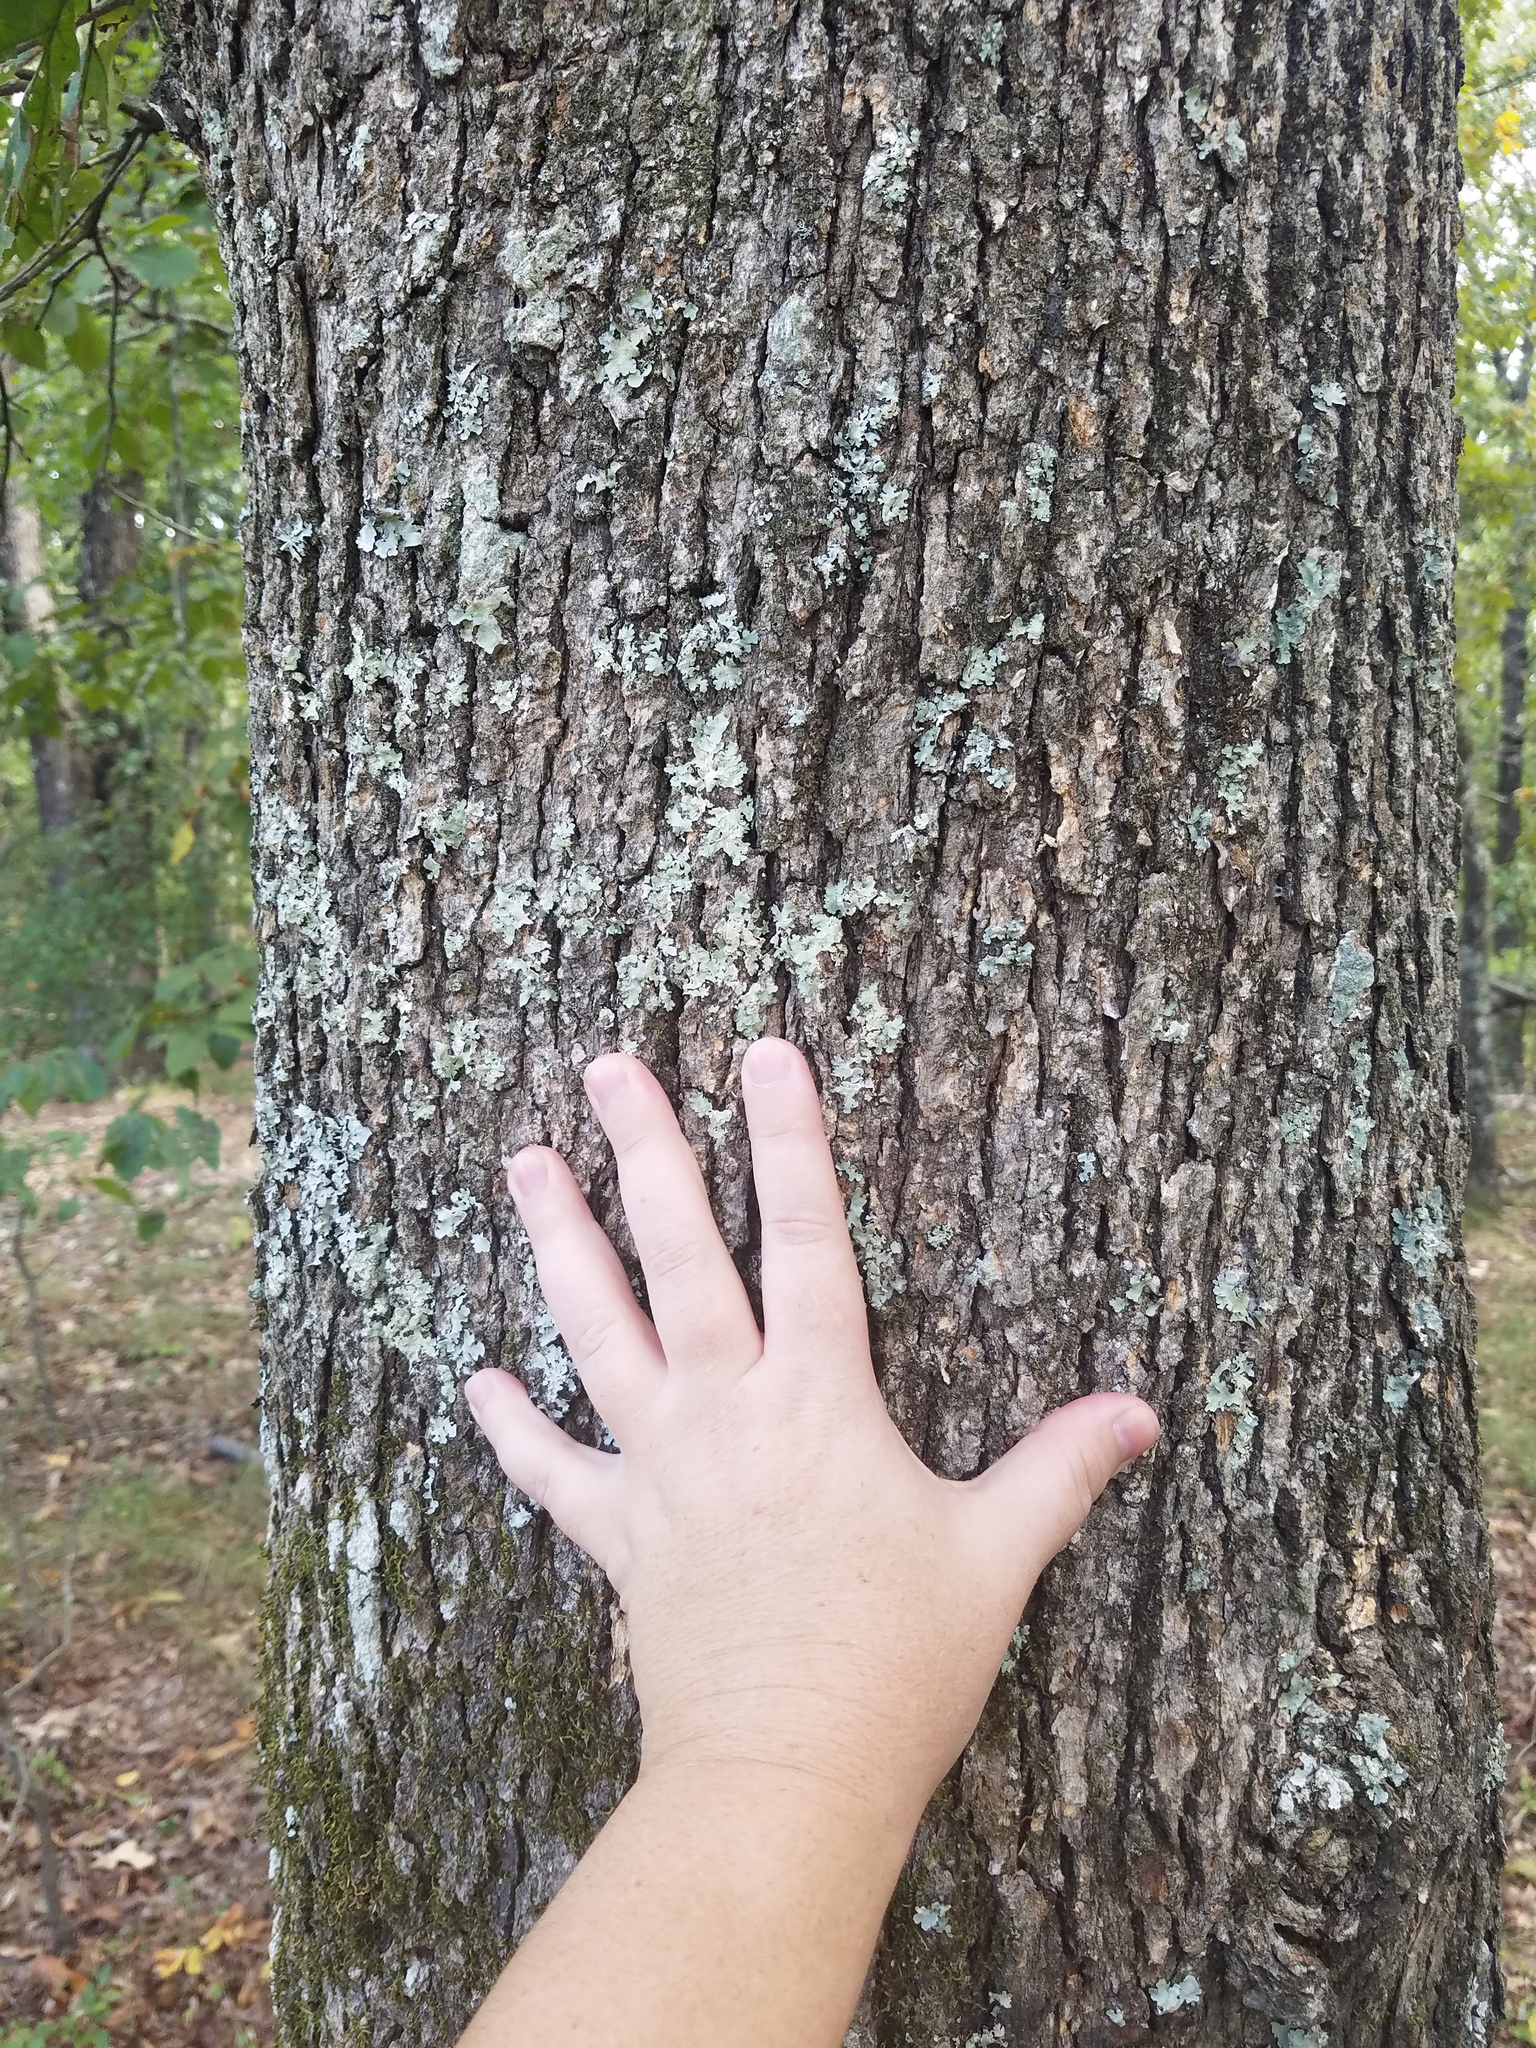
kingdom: Plantae
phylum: Tracheophyta
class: Magnoliopsida
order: Fagales
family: Fagaceae
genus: Quercus
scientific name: Quercus stellata
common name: Post oak
